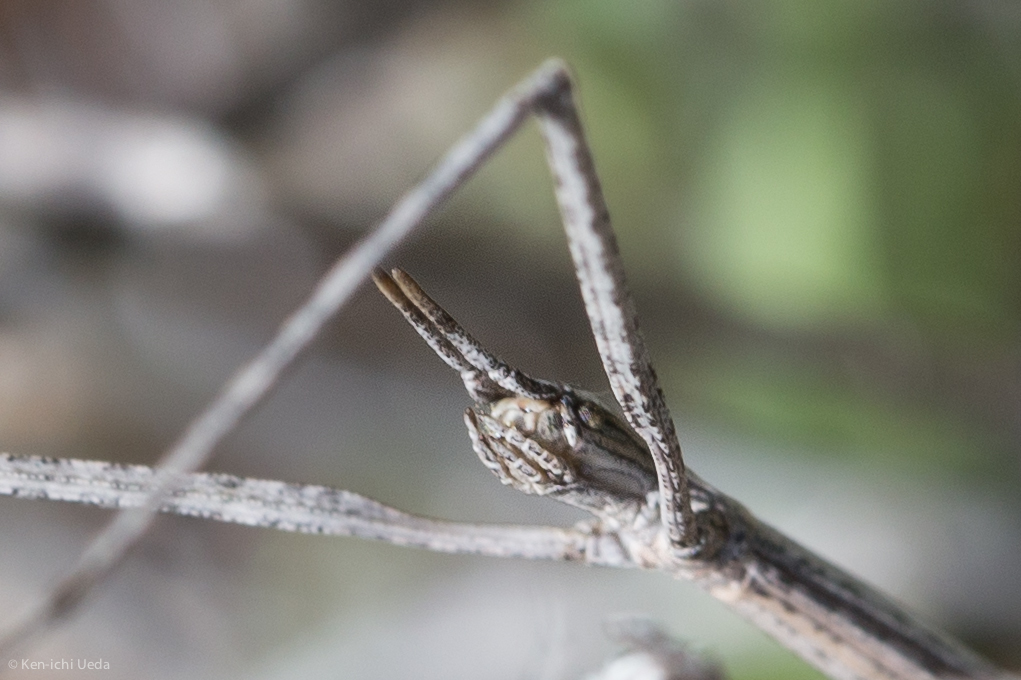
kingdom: Animalia
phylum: Arthropoda
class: Insecta
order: Phasmida
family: Heteronemiidae
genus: Parabacillus
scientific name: Parabacillus hesperus
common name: Western short-horned walkingstick
